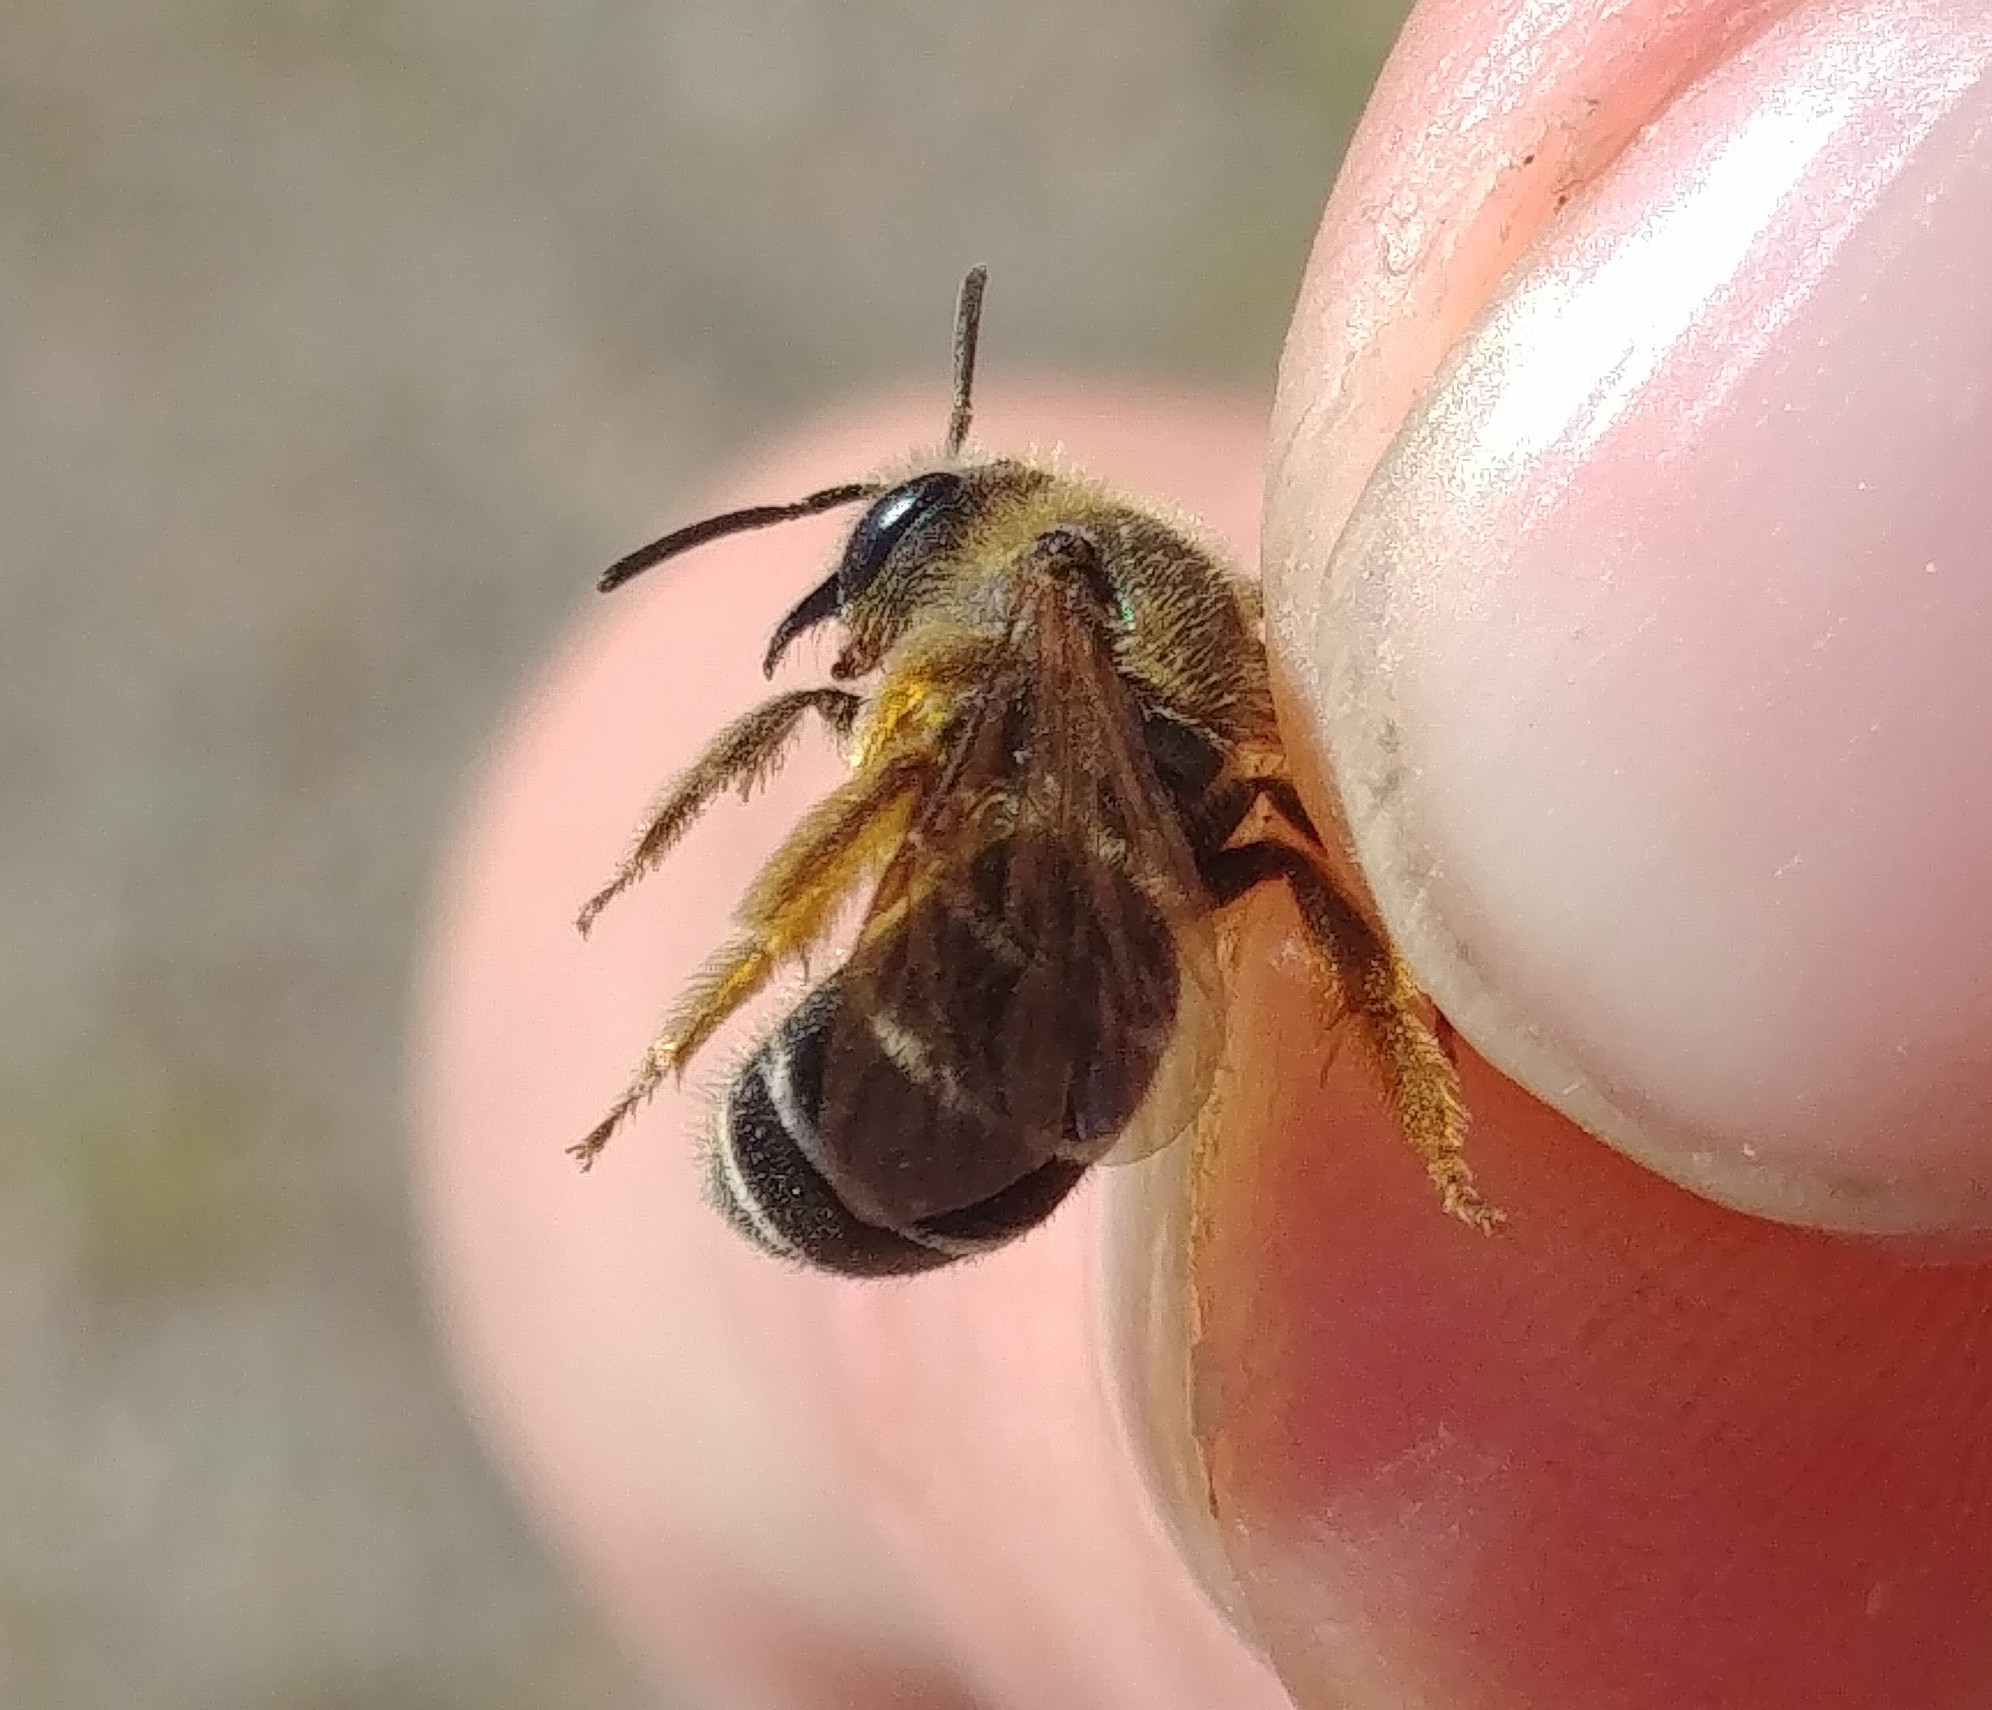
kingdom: Animalia
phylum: Arthropoda
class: Insecta
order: Hymenoptera
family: Halictidae
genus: Halictus
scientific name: Halictus rubicundus
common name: Orange-legged furrow bee
